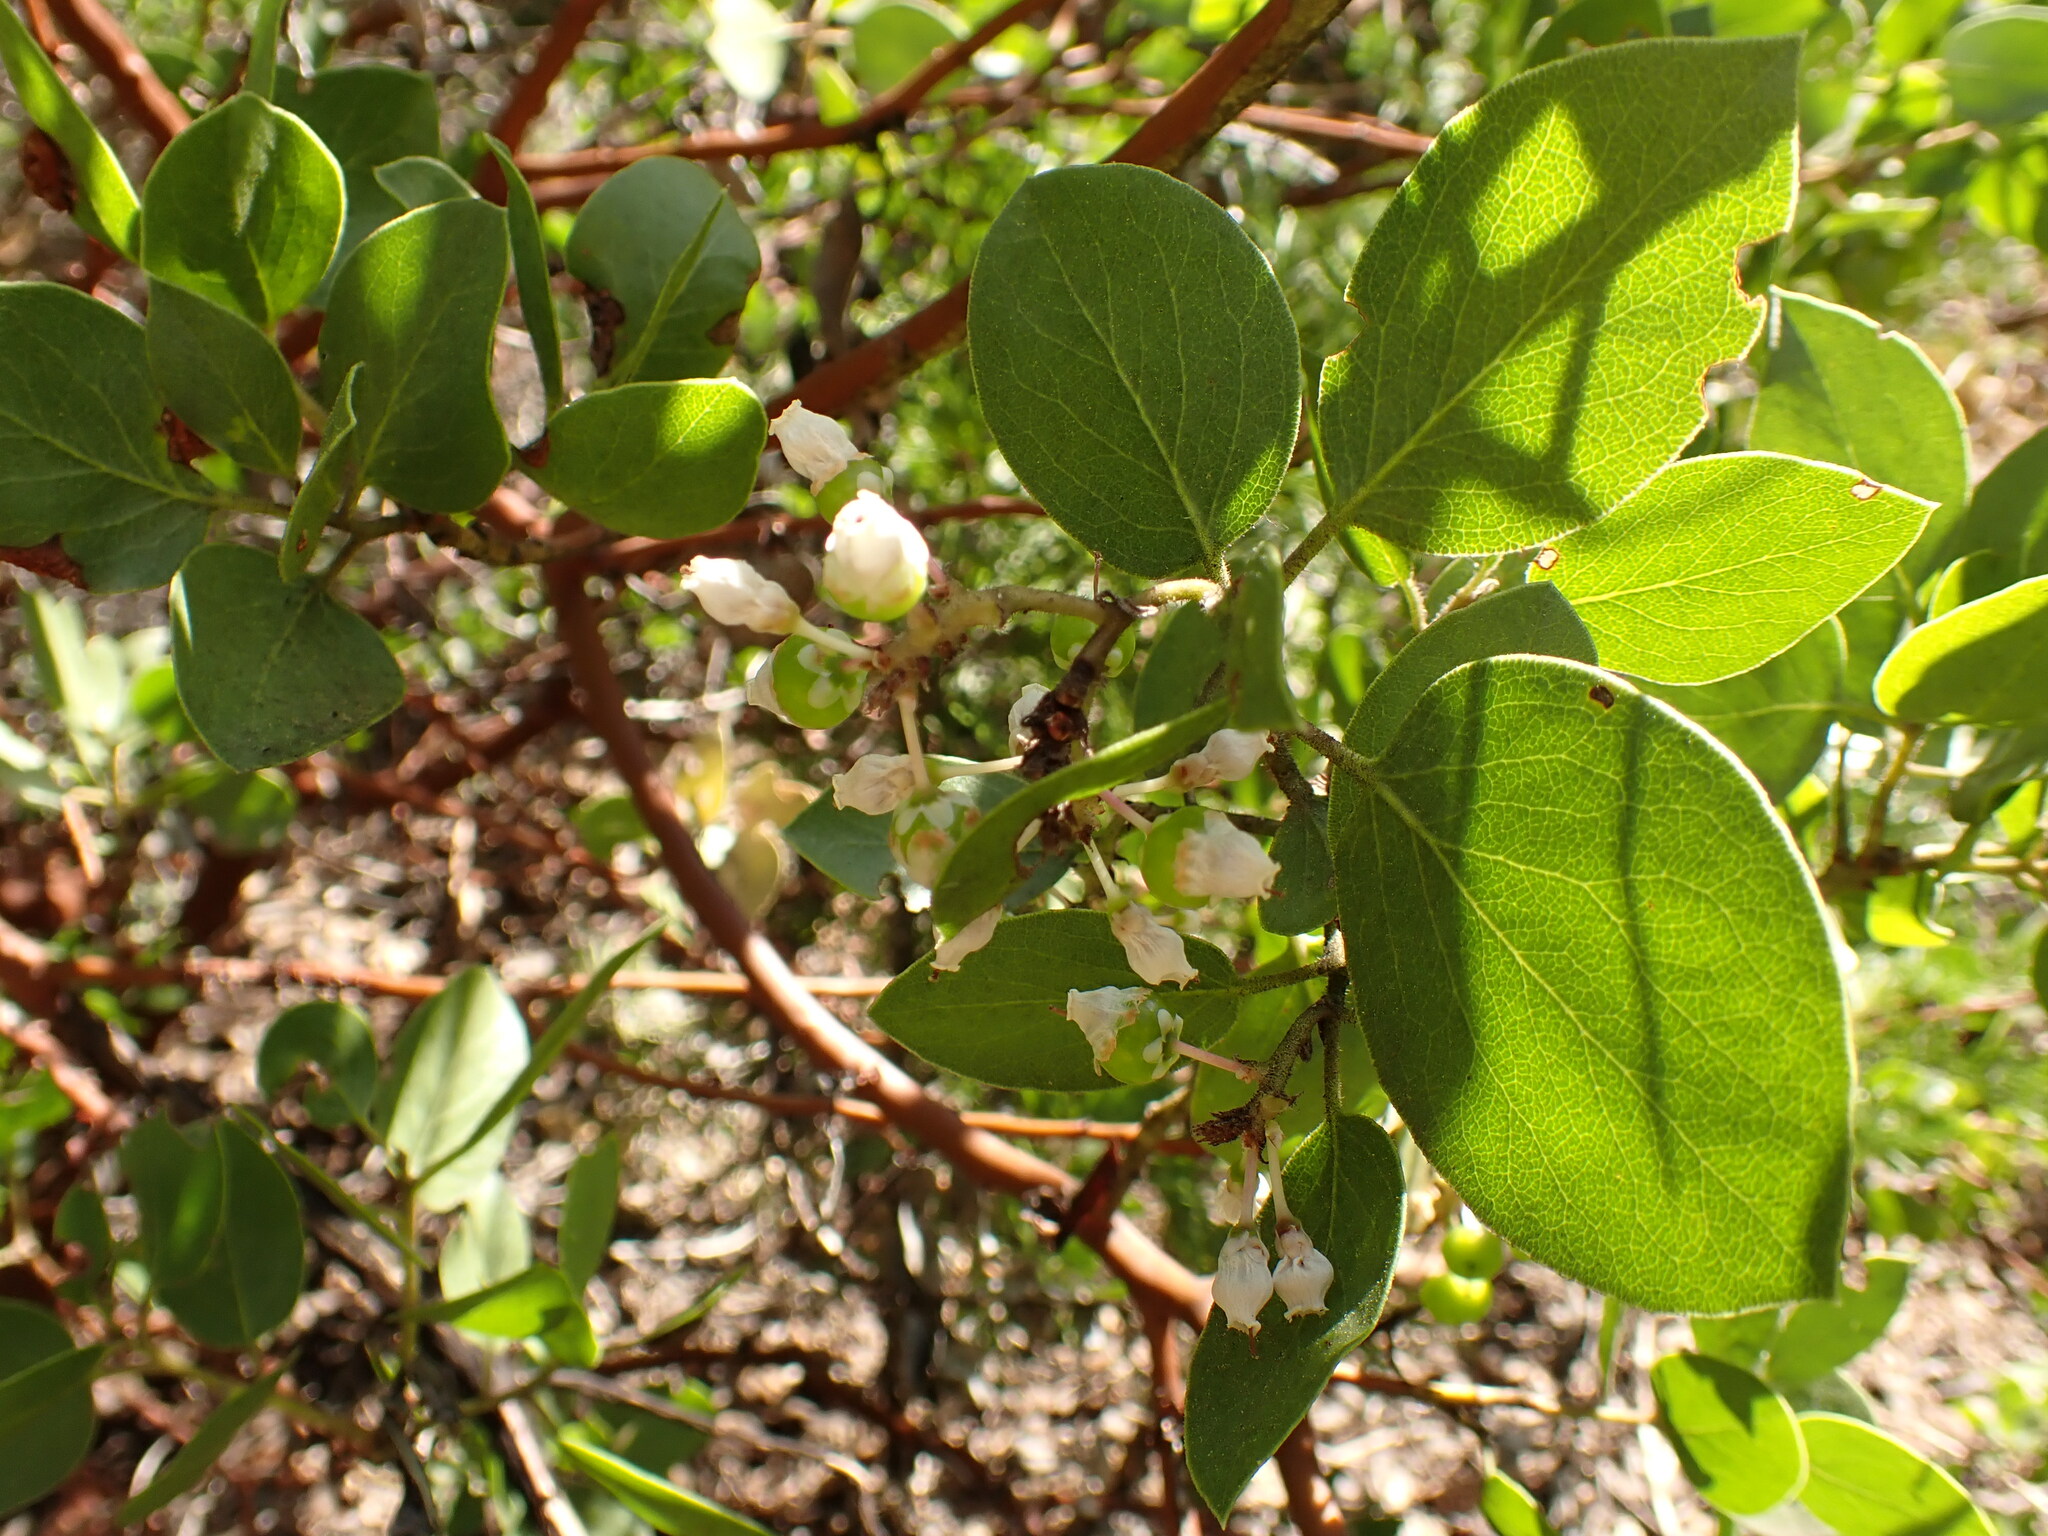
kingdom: Plantae
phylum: Tracheophyta
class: Magnoliopsida
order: Ericales
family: Ericaceae
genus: Arctostaphylos
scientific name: Arctostaphylos patula
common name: Green-leaf manzanita
